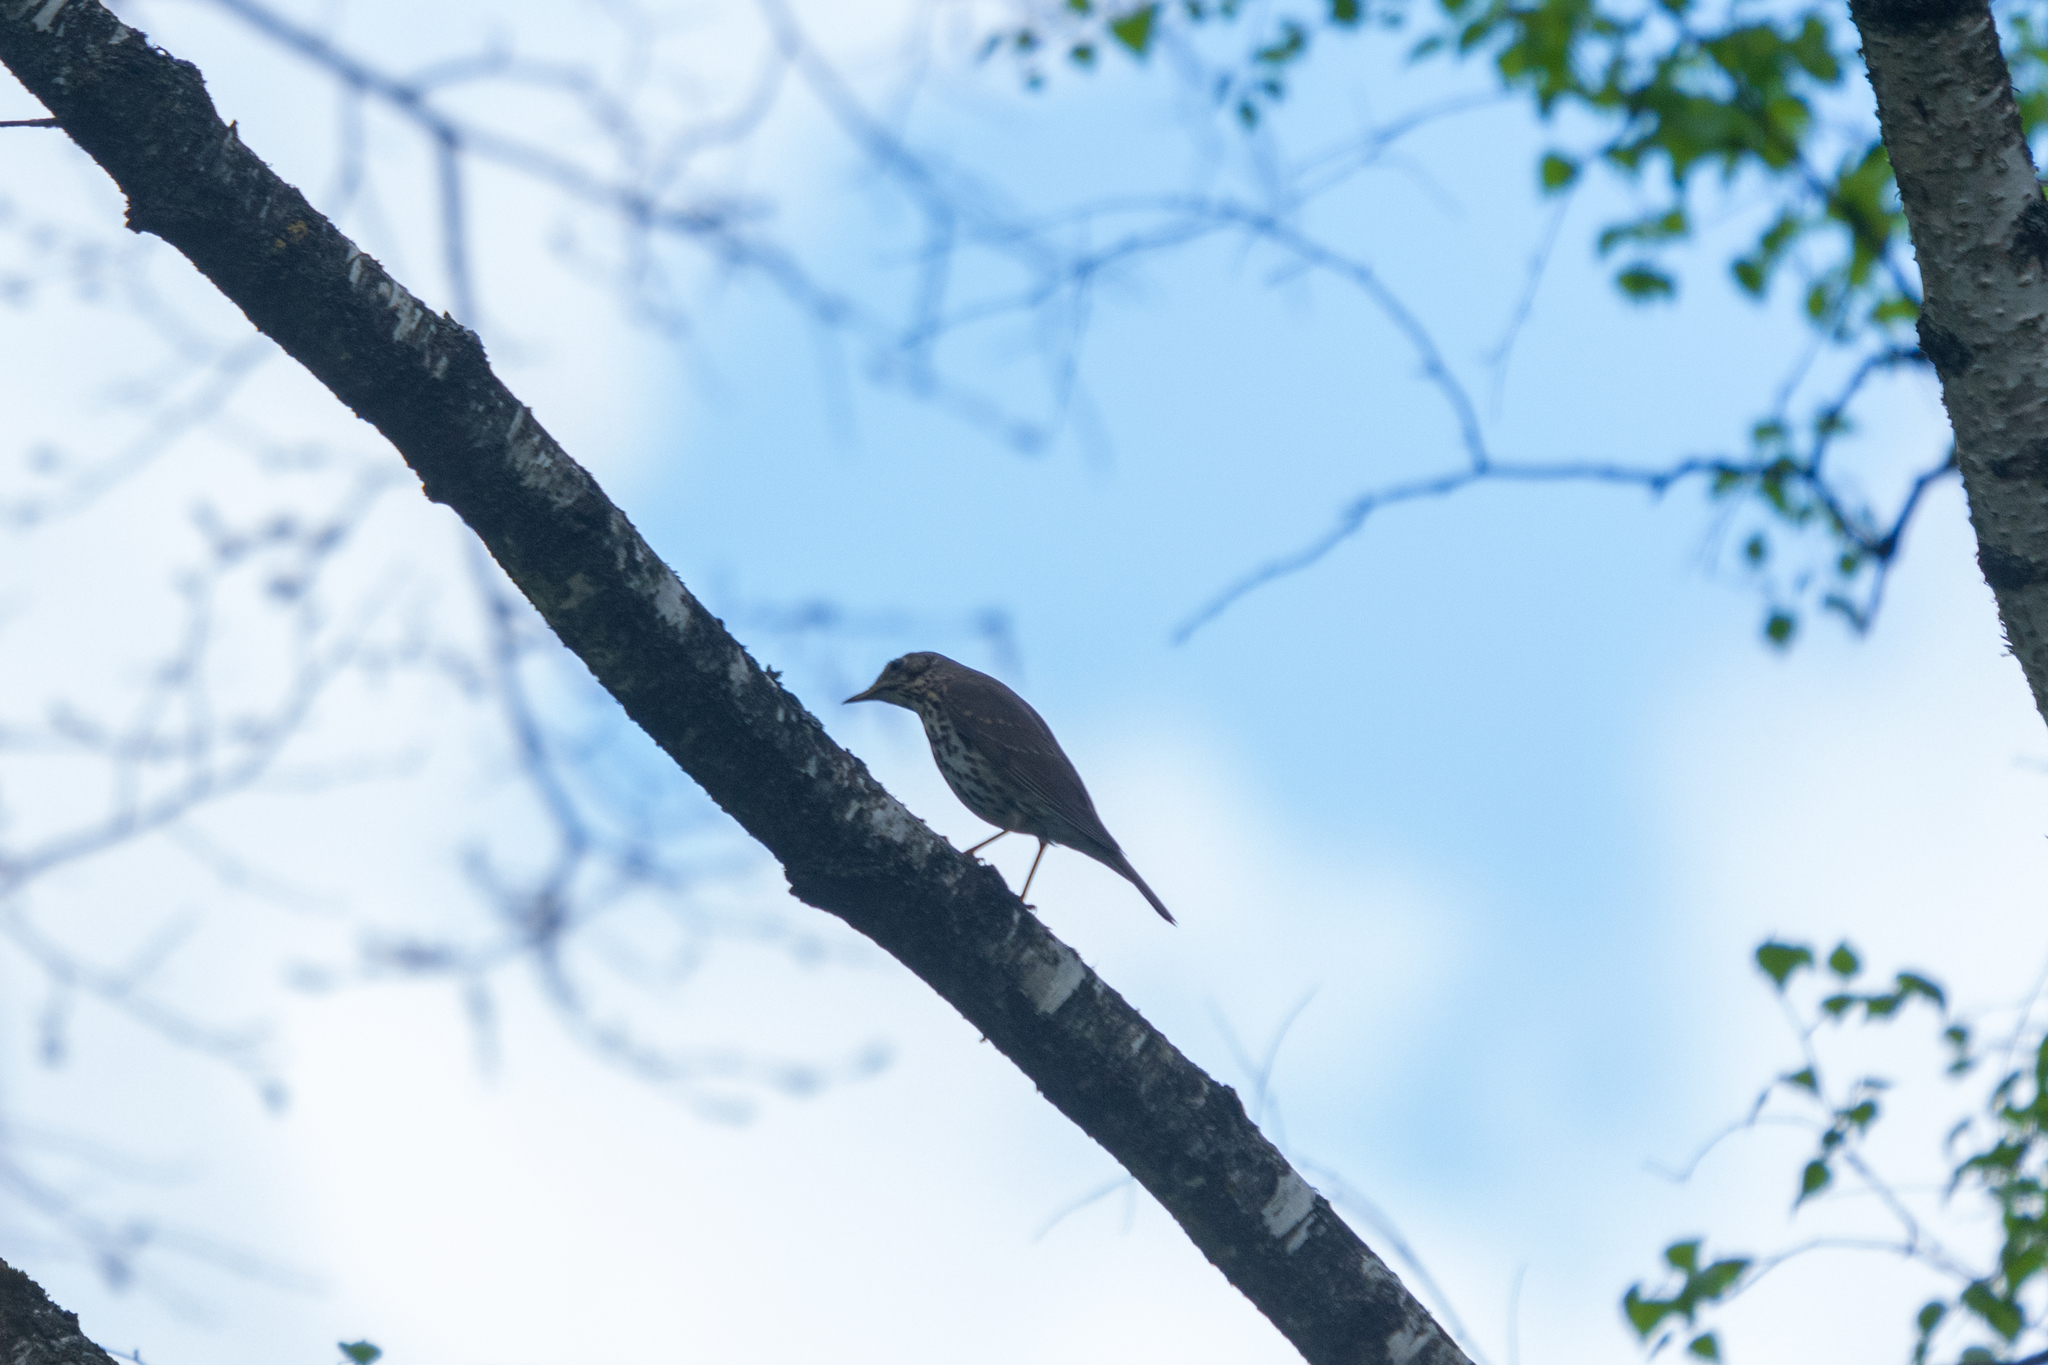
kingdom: Animalia
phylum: Chordata
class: Aves
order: Passeriformes
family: Turdidae
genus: Turdus
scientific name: Turdus philomelos
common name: Song thrush
